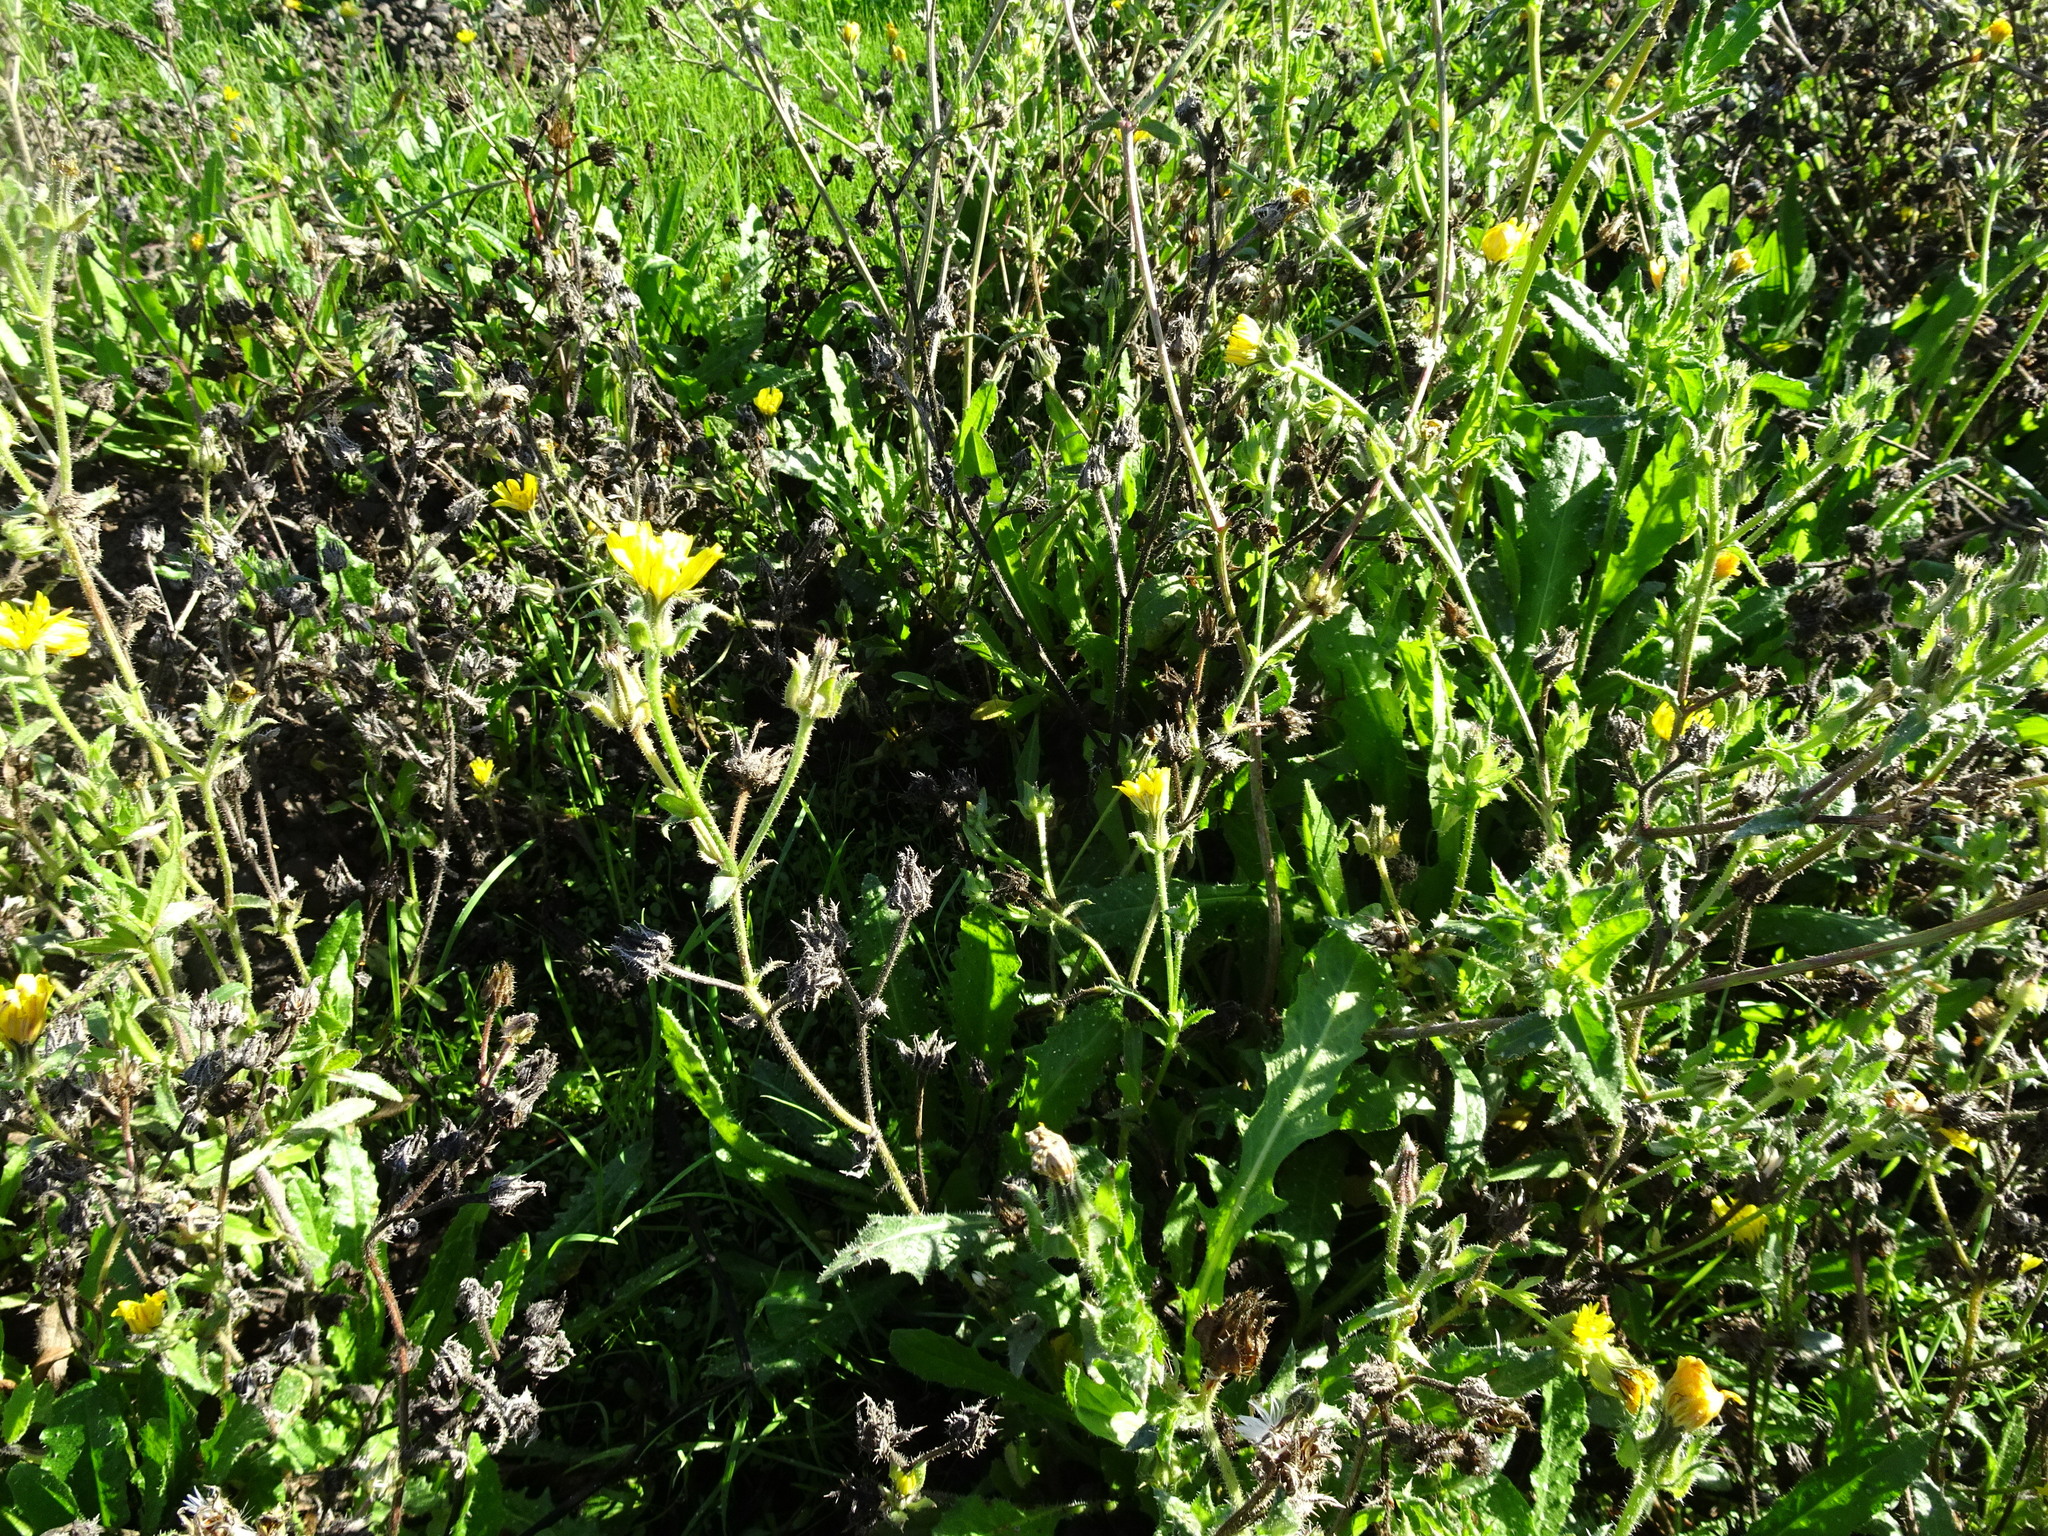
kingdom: Plantae
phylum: Tracheophyta
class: Magnoliopsida
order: Asterales
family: Asteraceae
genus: Helminthotheca
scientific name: Helminthotheca echioides
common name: Ox-tongue
